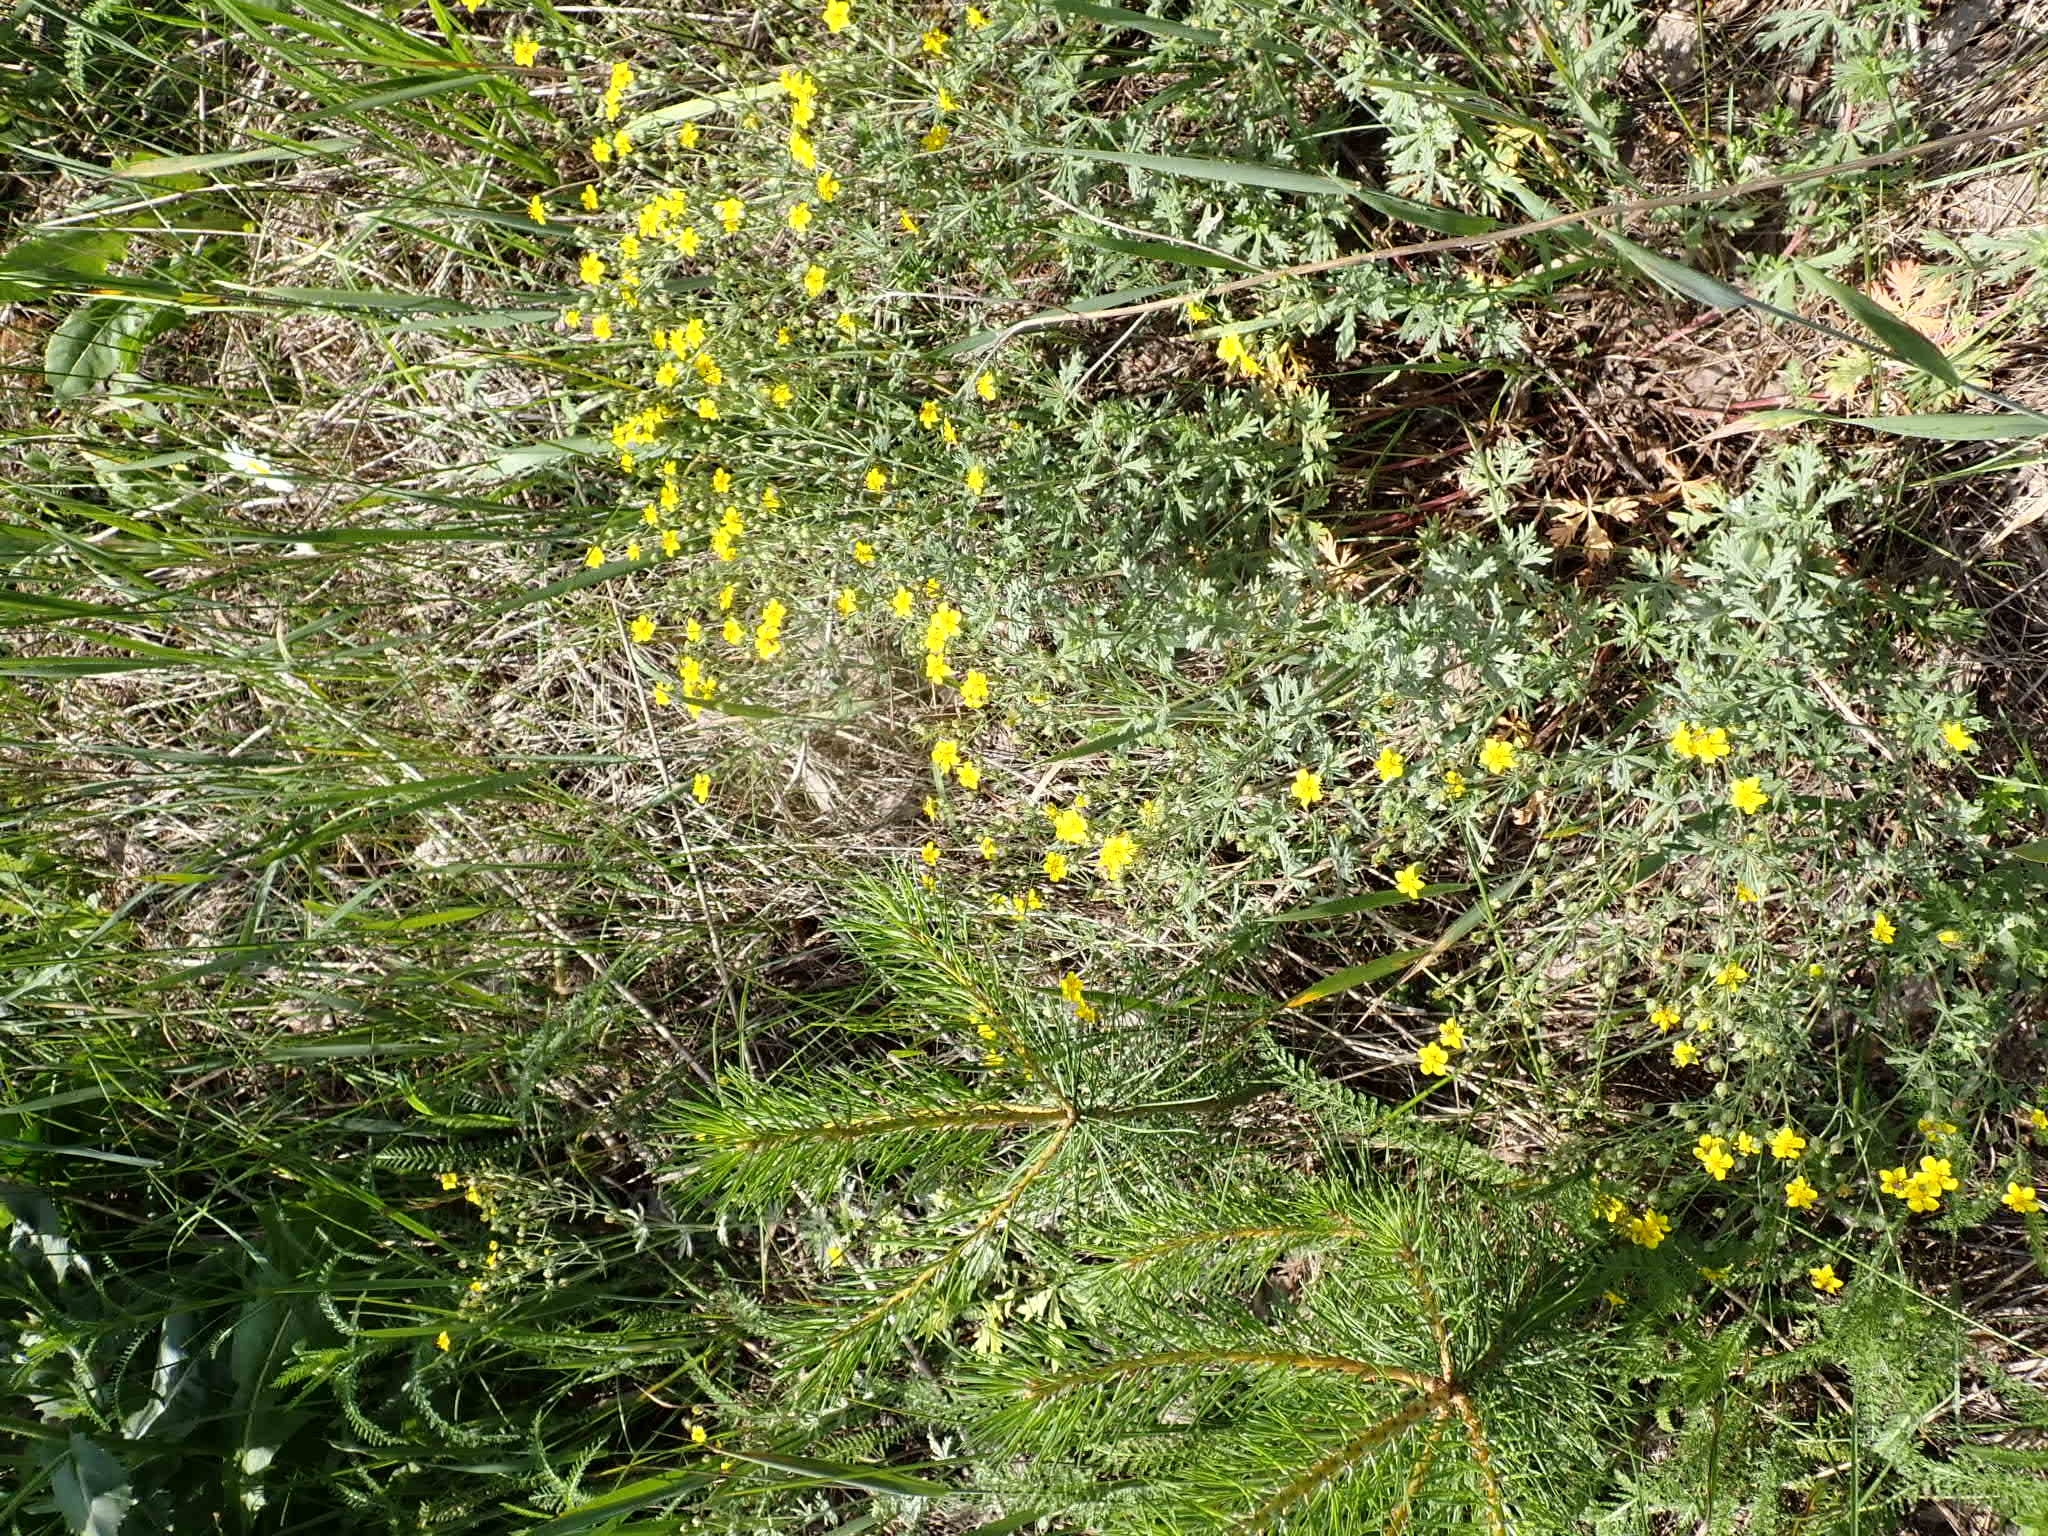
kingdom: Plantae
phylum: Tracheophyta
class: Magnoliopsida
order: Rosales
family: Rosaceae
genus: Potentilla
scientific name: Potentilla argentea
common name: Hoary cinquefoil
